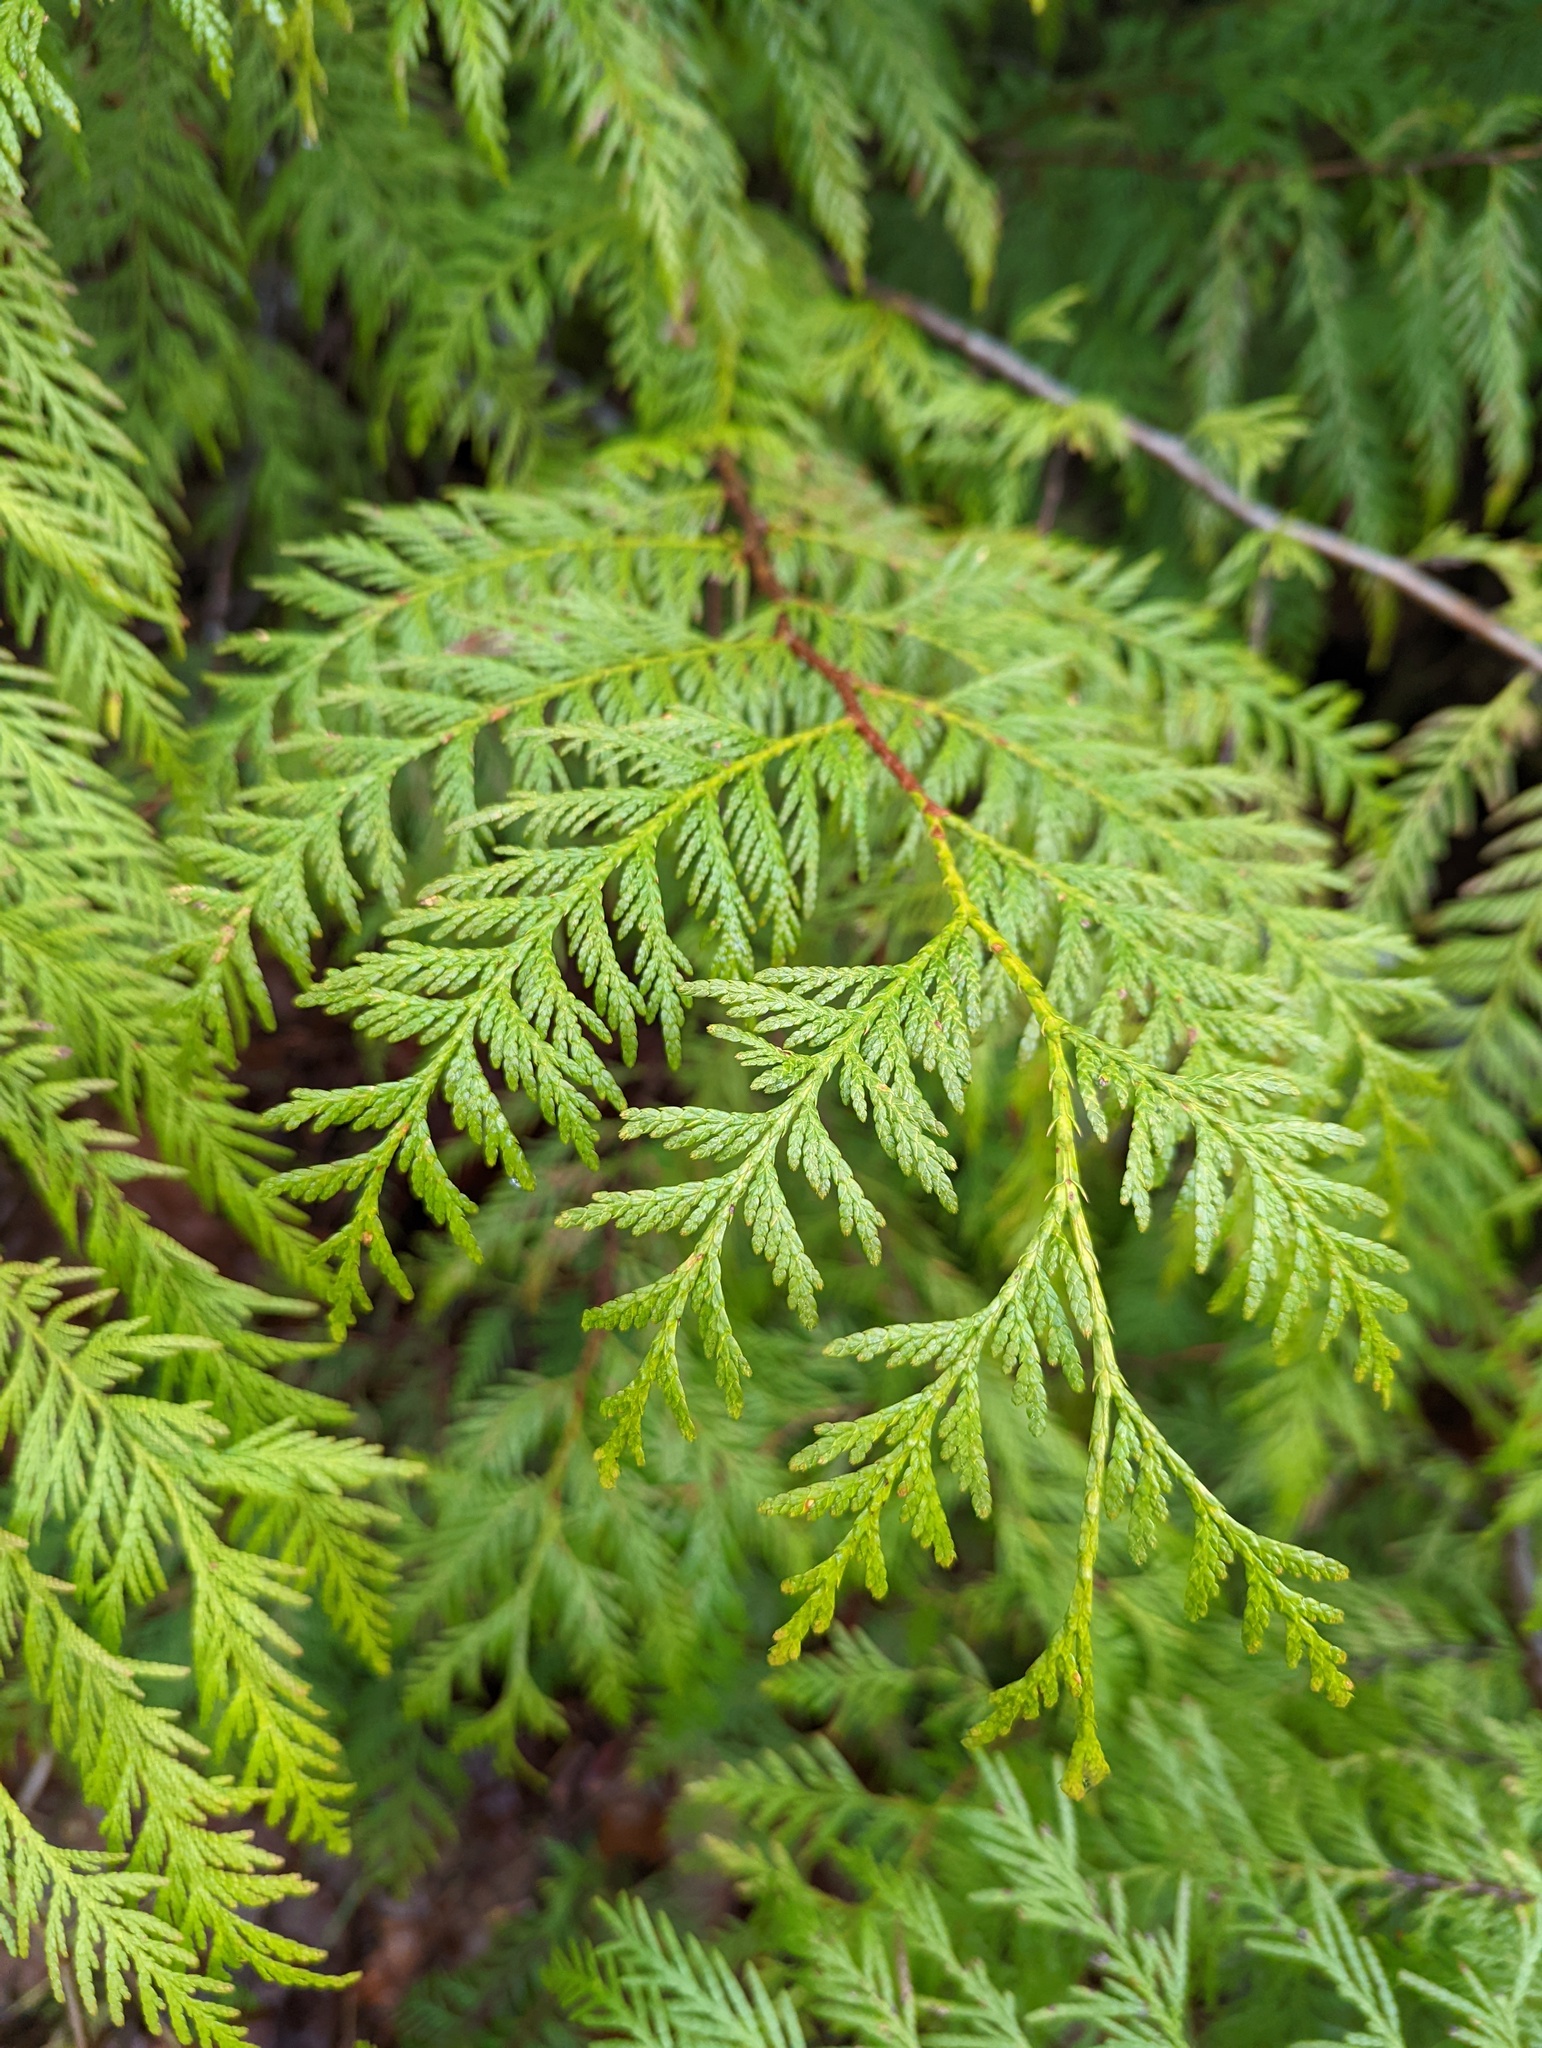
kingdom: Plantae
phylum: Tracheophyta
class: Pinopsida
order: Pinales
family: Cupressaceae
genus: Thuja
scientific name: Thuja plicata
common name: Western red-cedar
